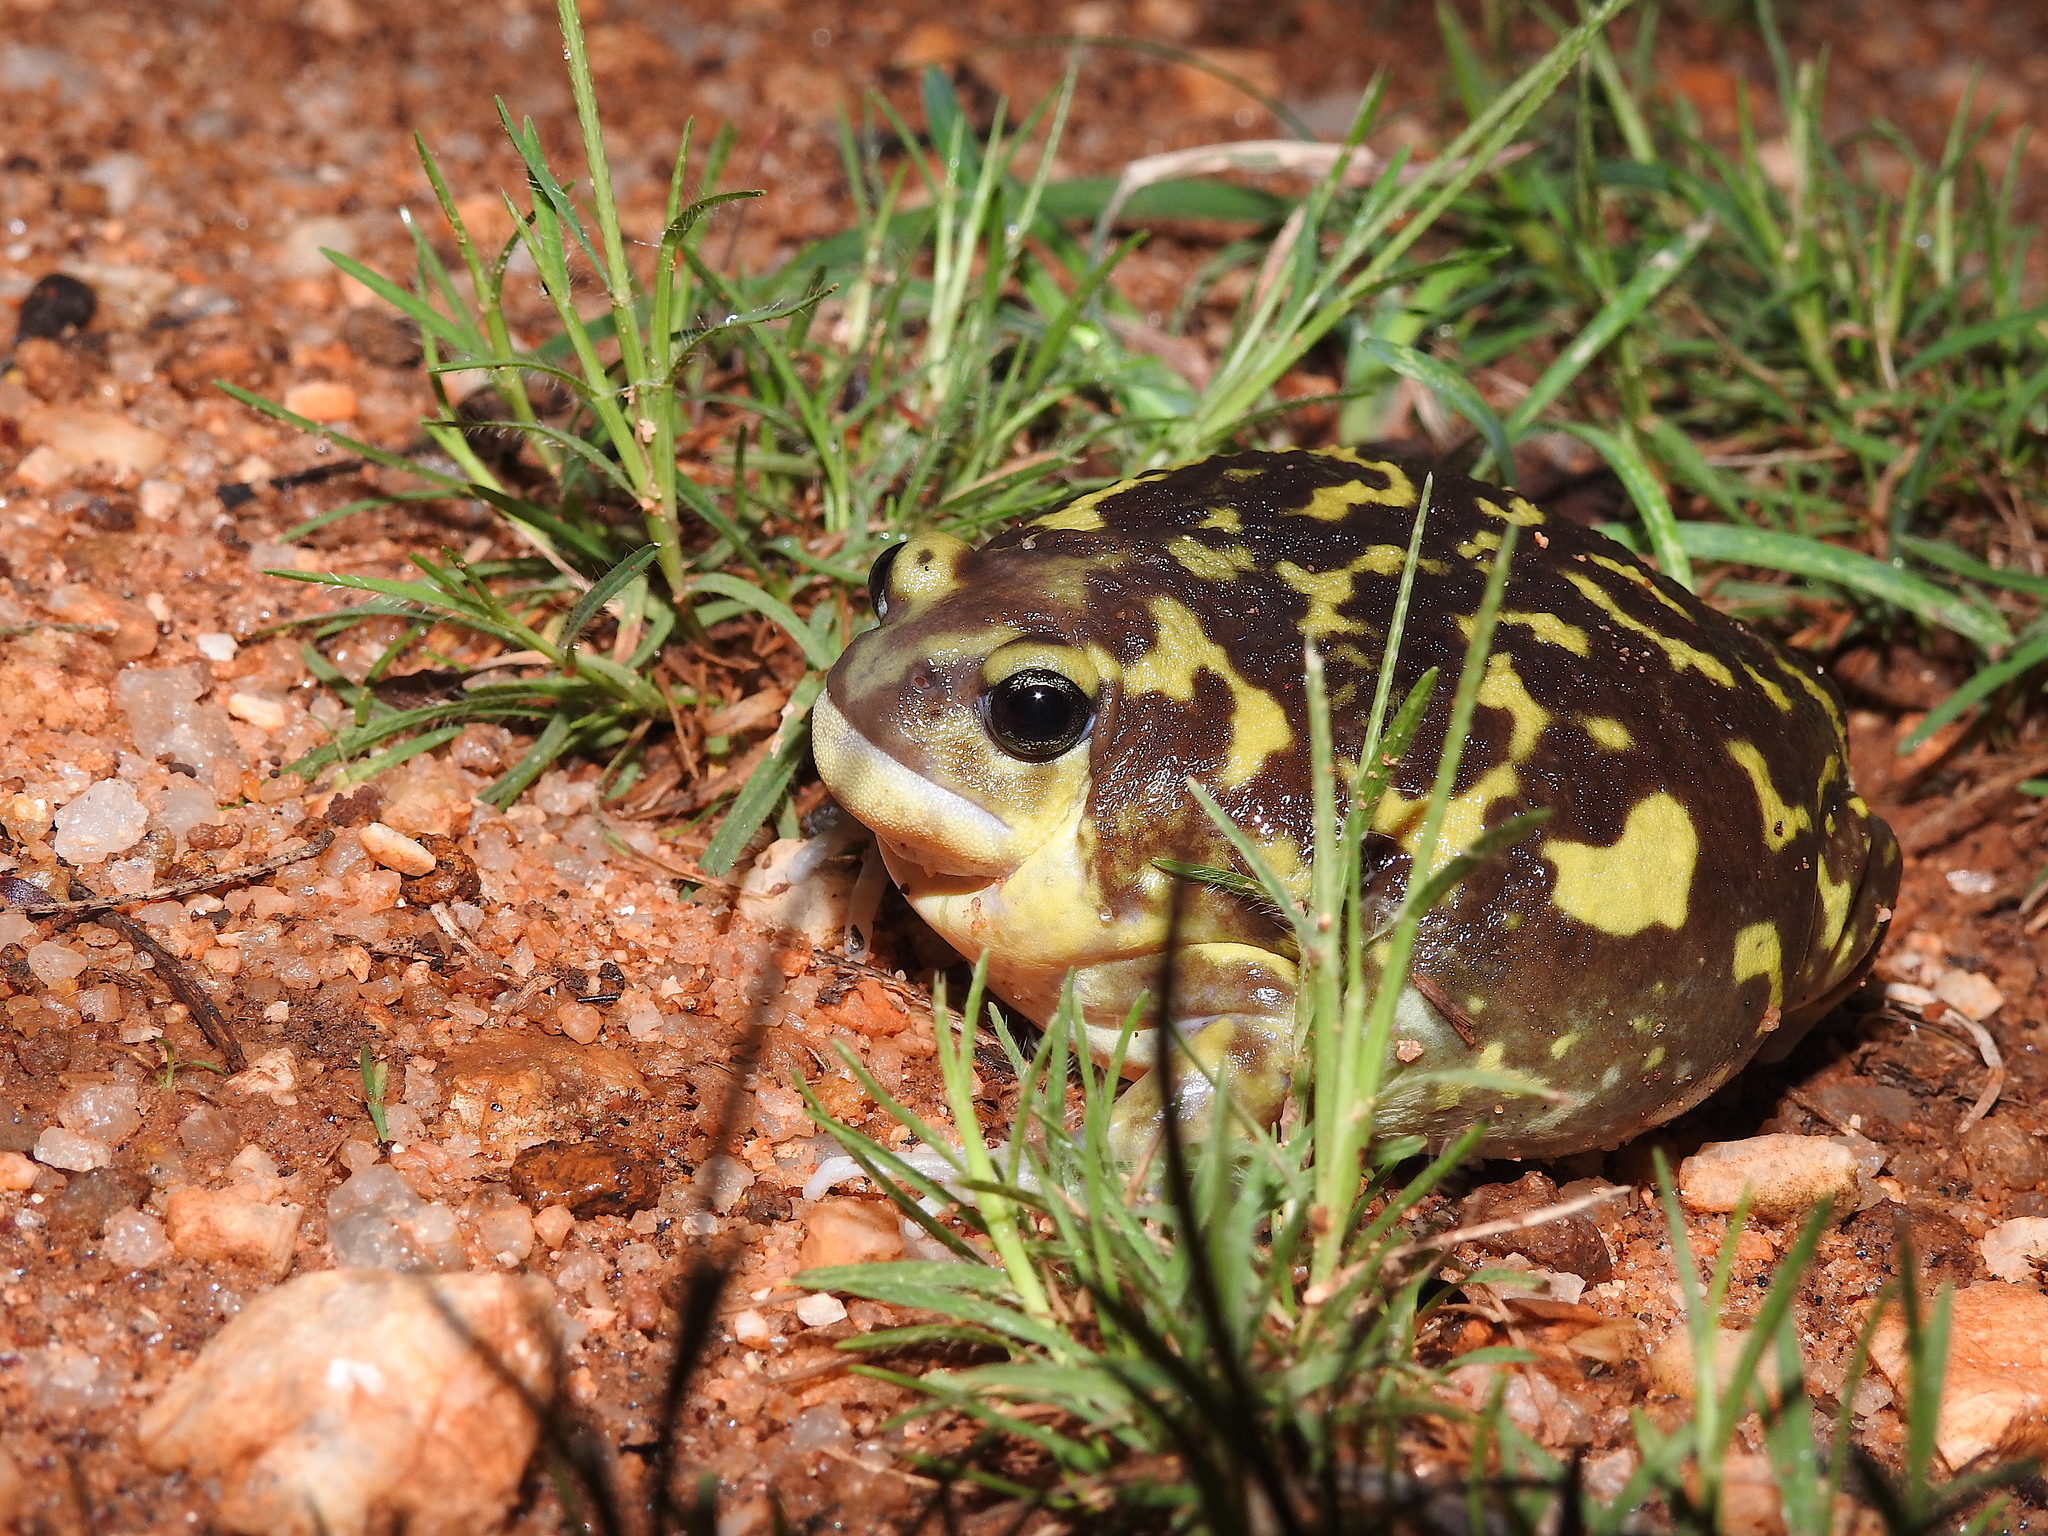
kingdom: Animalia
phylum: Chordata
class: Amphibia
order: Anura
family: Microhylidae
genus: Uperodon
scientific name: Uperodon systoma
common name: Balloon frog
